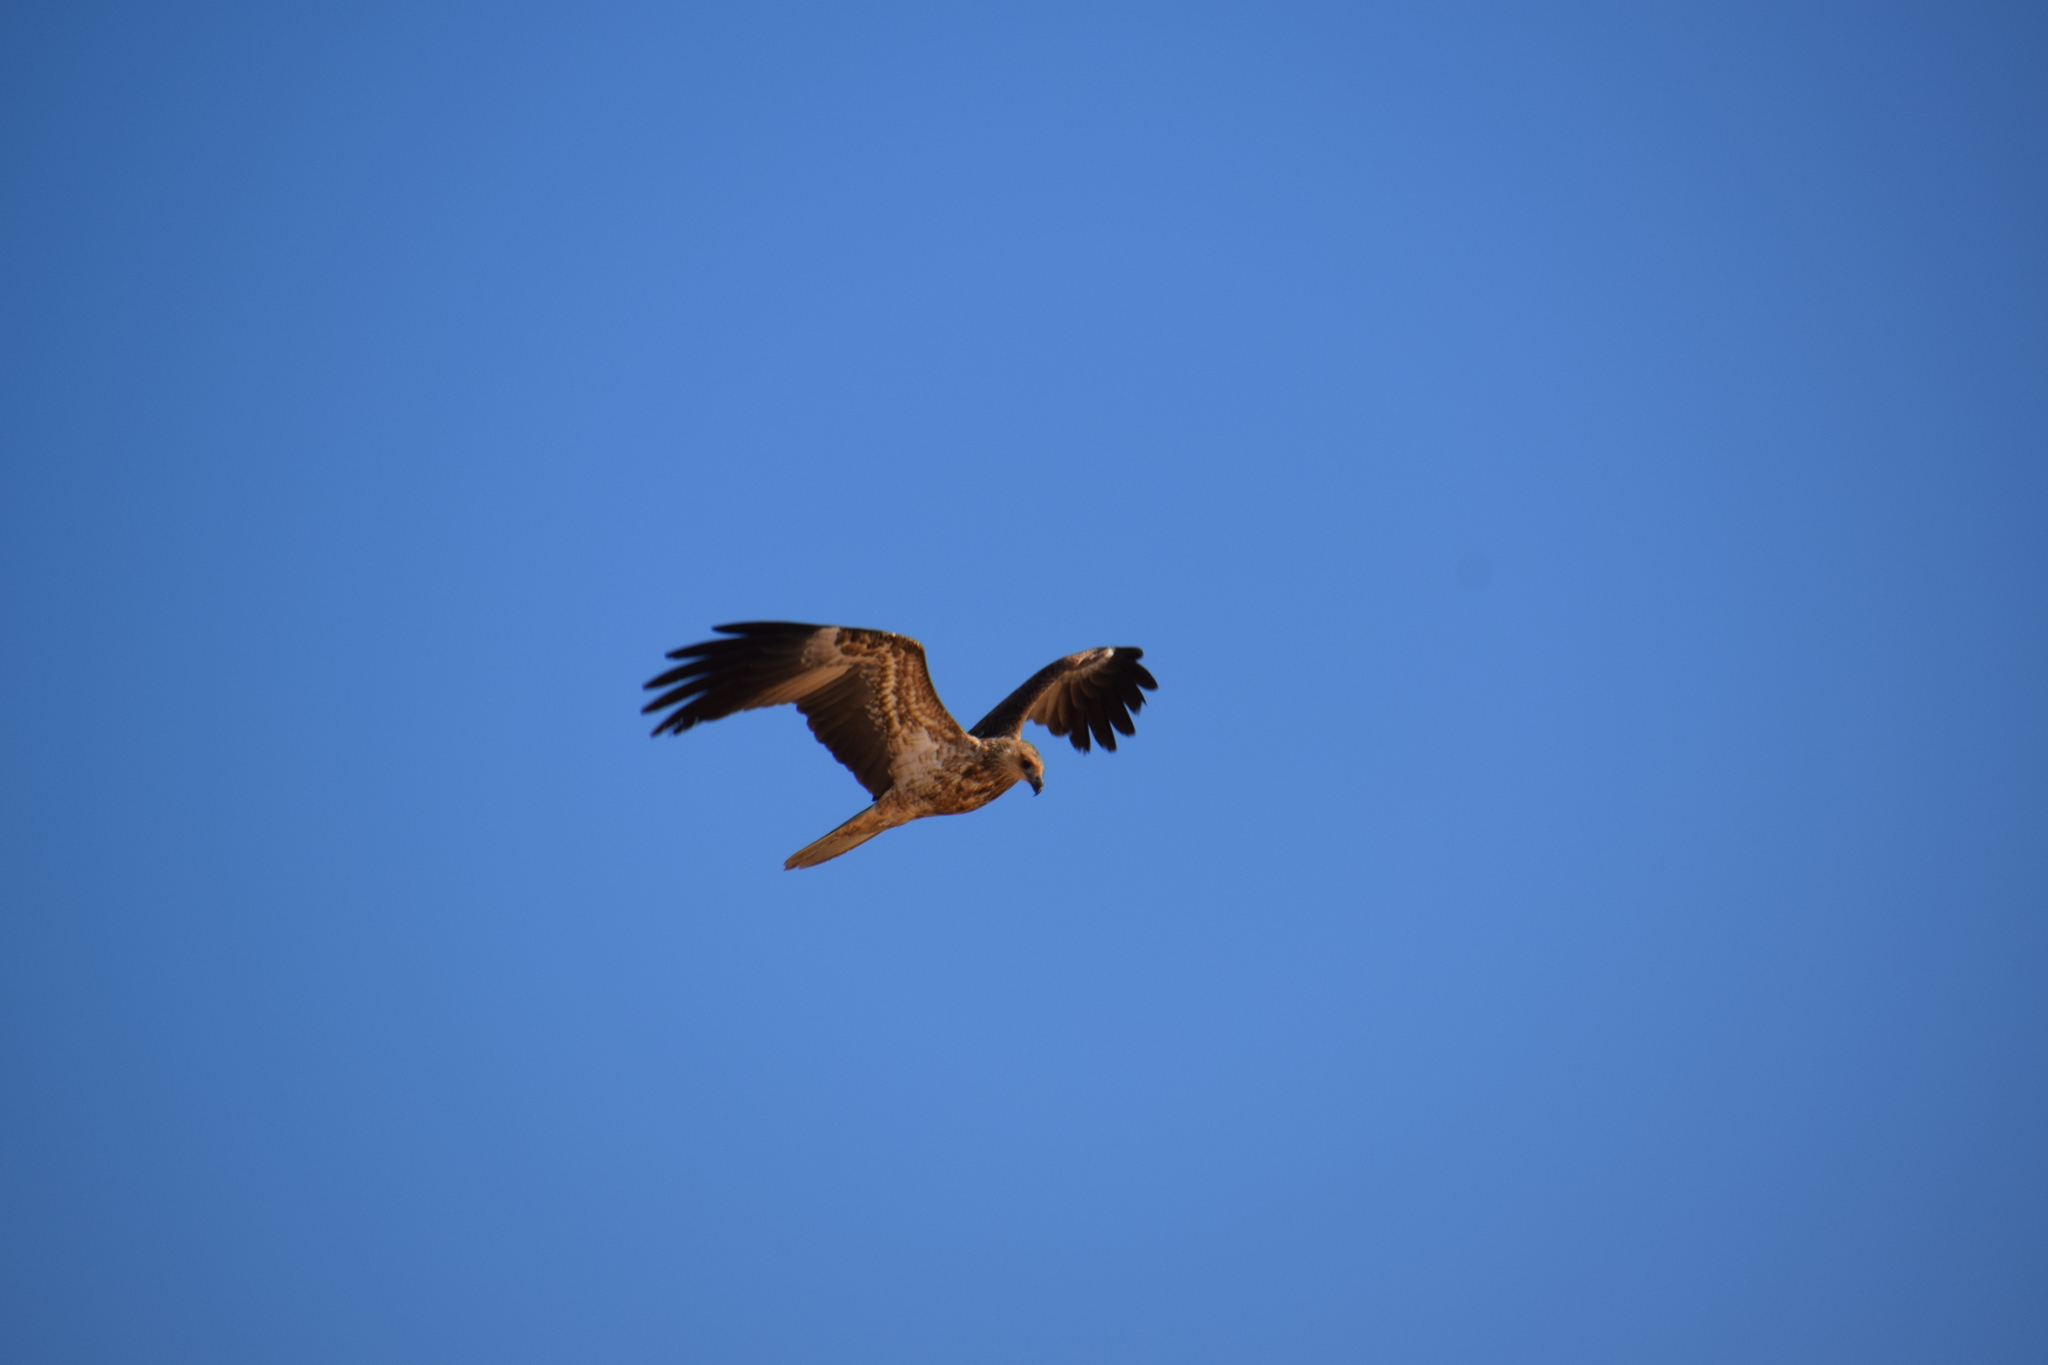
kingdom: Animalia
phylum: Chordata
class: Aves
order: Accipitriformes
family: Accipitridae
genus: Haliastur
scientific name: Haliastur sphenurus
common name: Whistling kite
